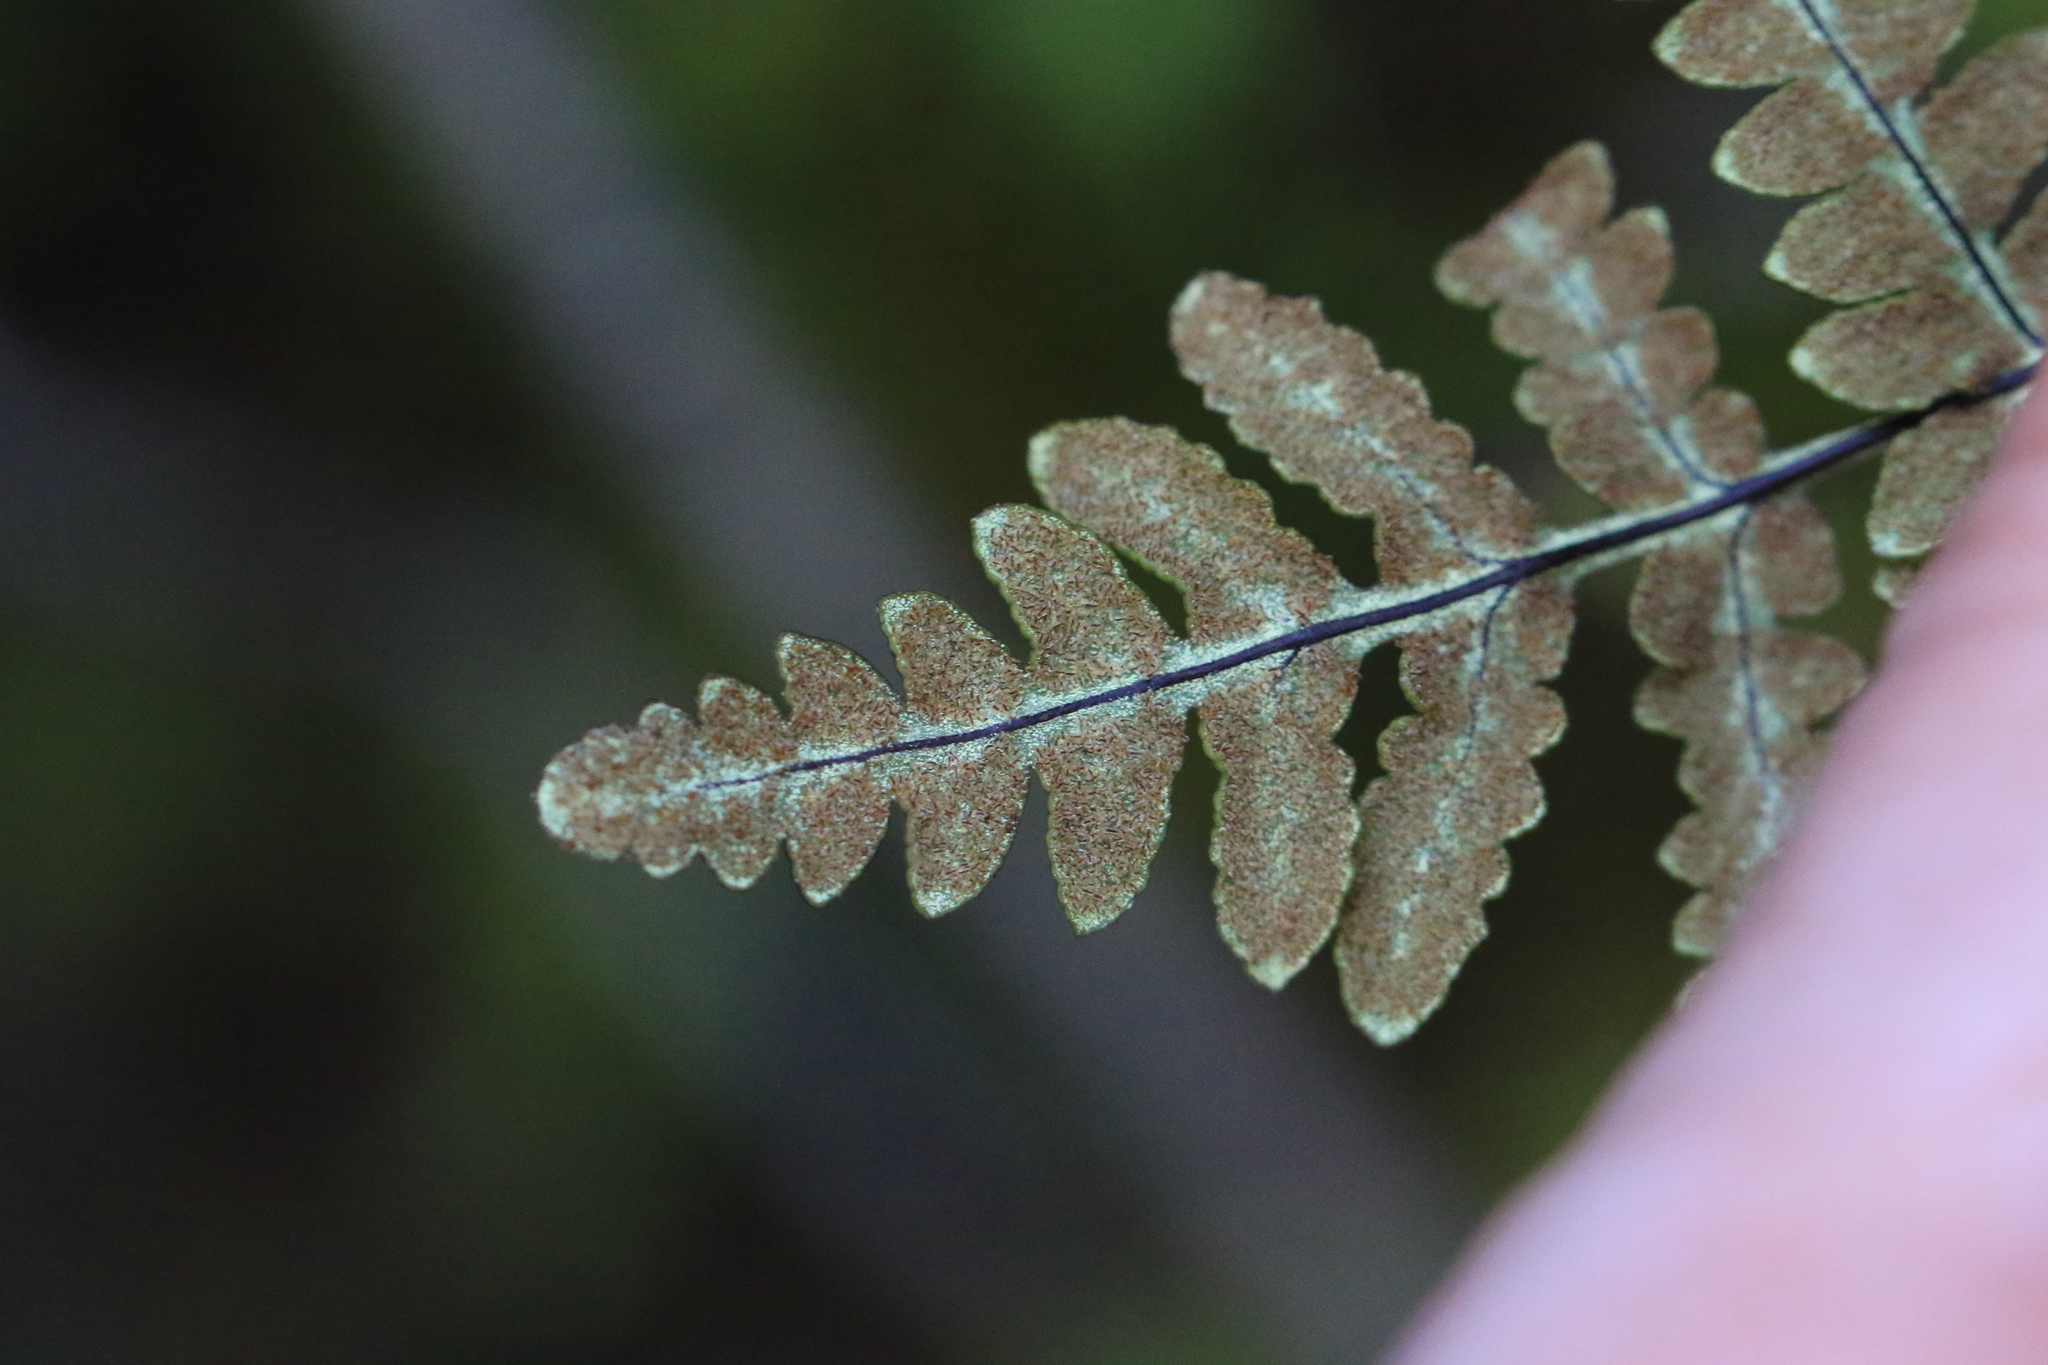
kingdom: Plantae
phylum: Tracheophyta
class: Polypodiopsida
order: Polypodiales
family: Pteridaceae
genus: Pentagramma
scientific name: Pentagramma triangularis
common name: Gold fern
